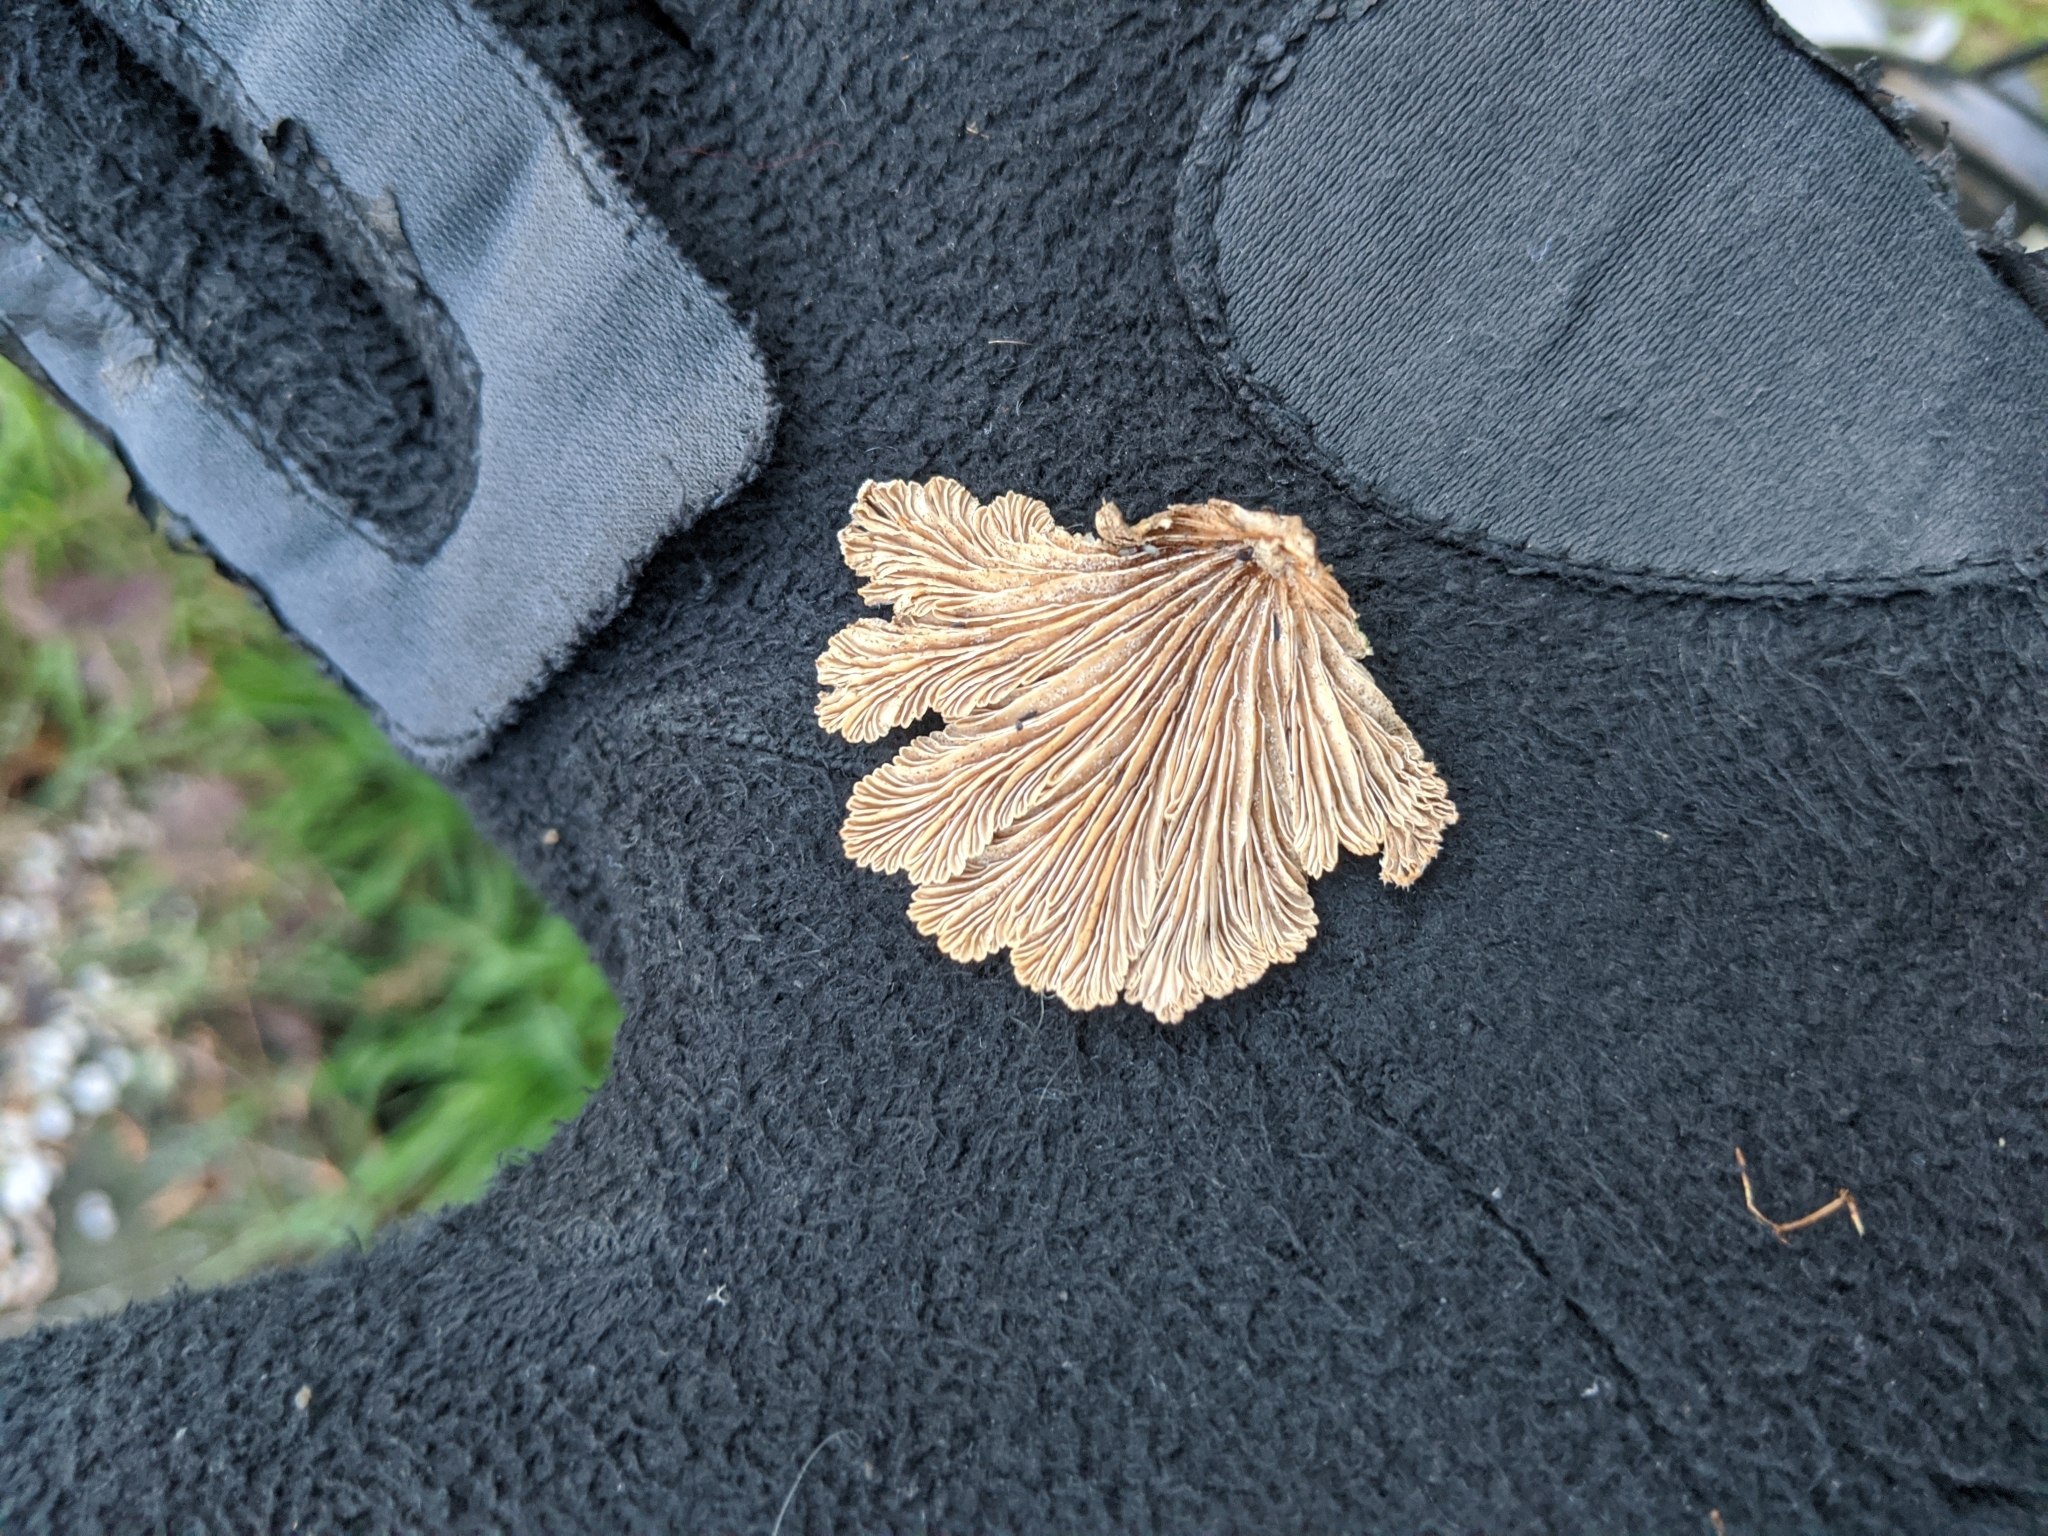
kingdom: Fungi
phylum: Basidiomycota
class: Agaricomycetes
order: Agaricales
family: Schizophyllaceae
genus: Schizophyllum
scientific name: Schizophyllum commune
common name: Common porecrust
